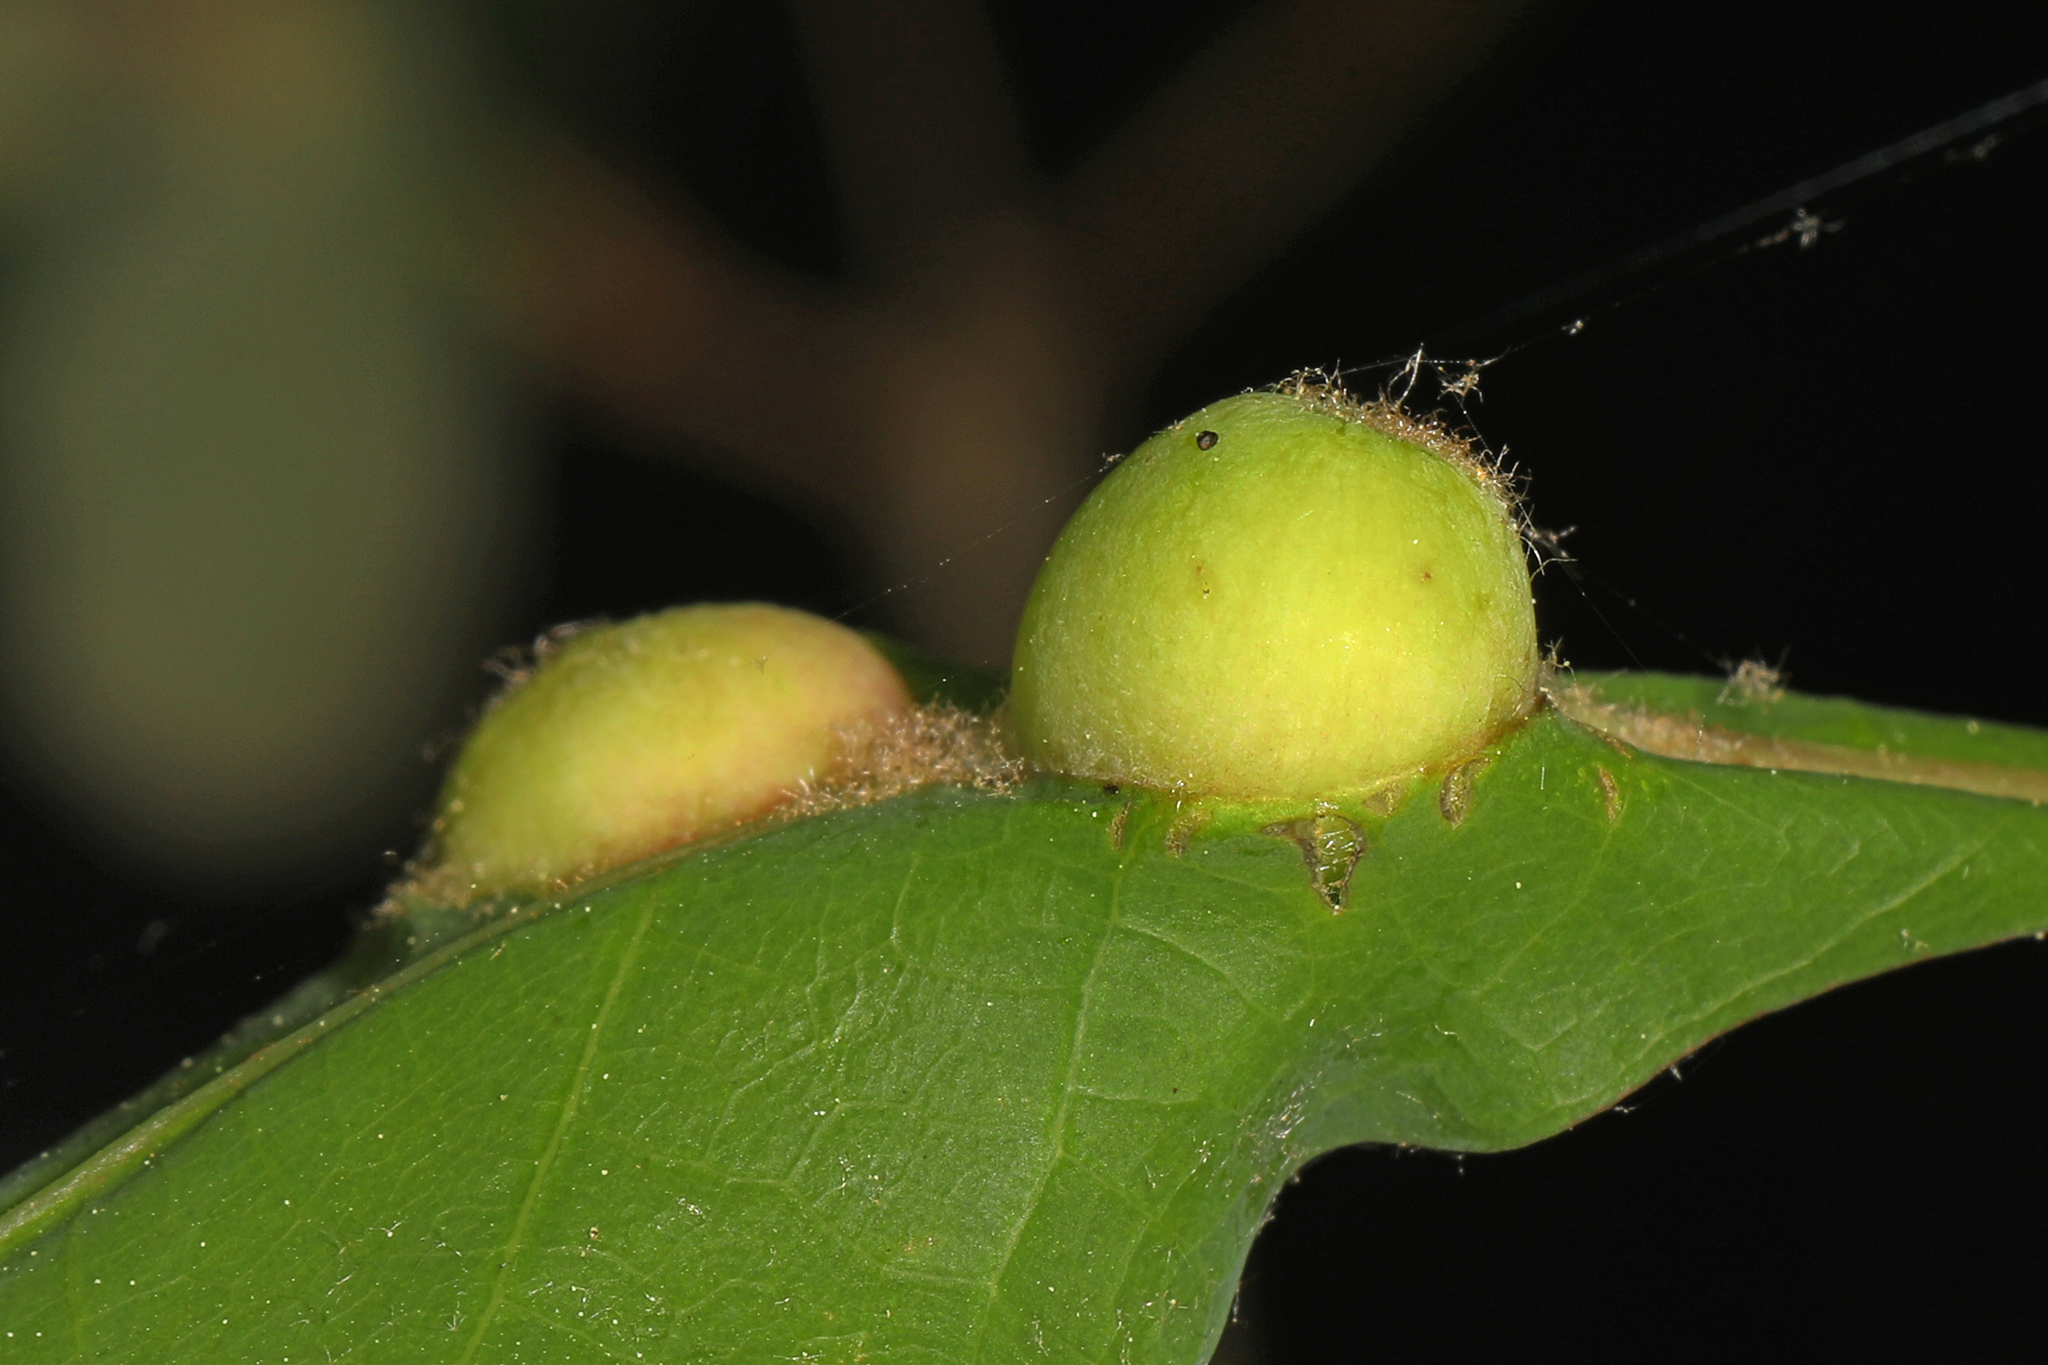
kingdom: Animalia
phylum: Arthropoda
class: Insecta
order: Hymenoptera
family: Cynipidae
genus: Andricus
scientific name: Andricus
